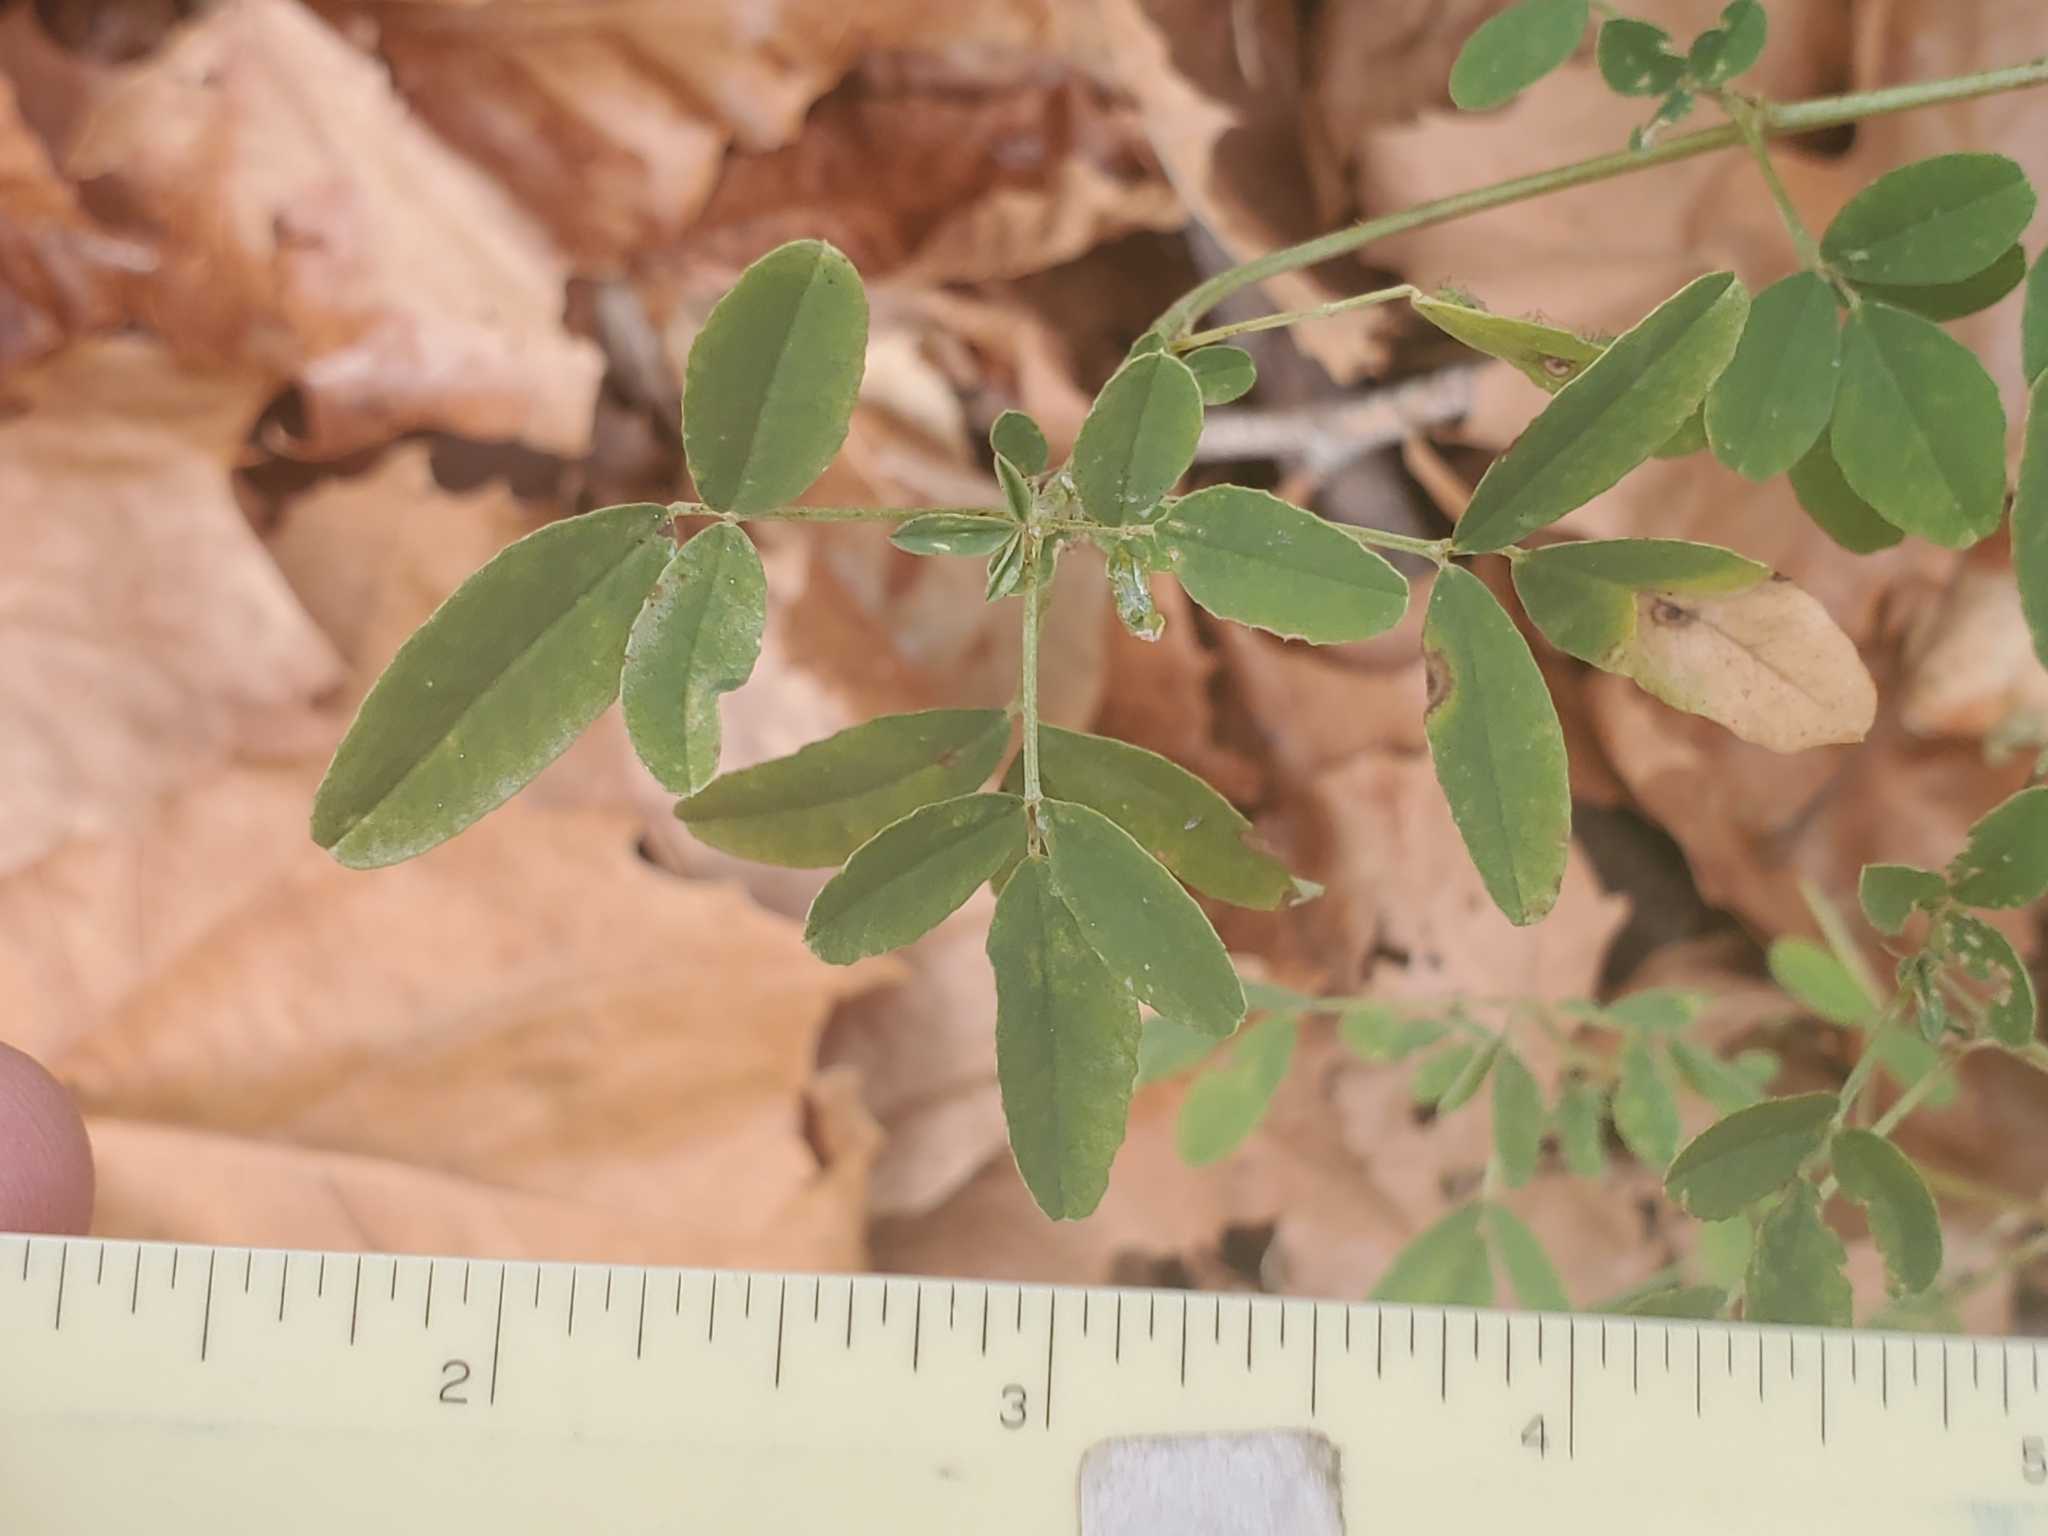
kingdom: Plantae
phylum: Tracheophyta
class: Magnoliopsida
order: Fabales
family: Fabaceae
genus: Melilotus
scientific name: Melilotus albus
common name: White melilot
